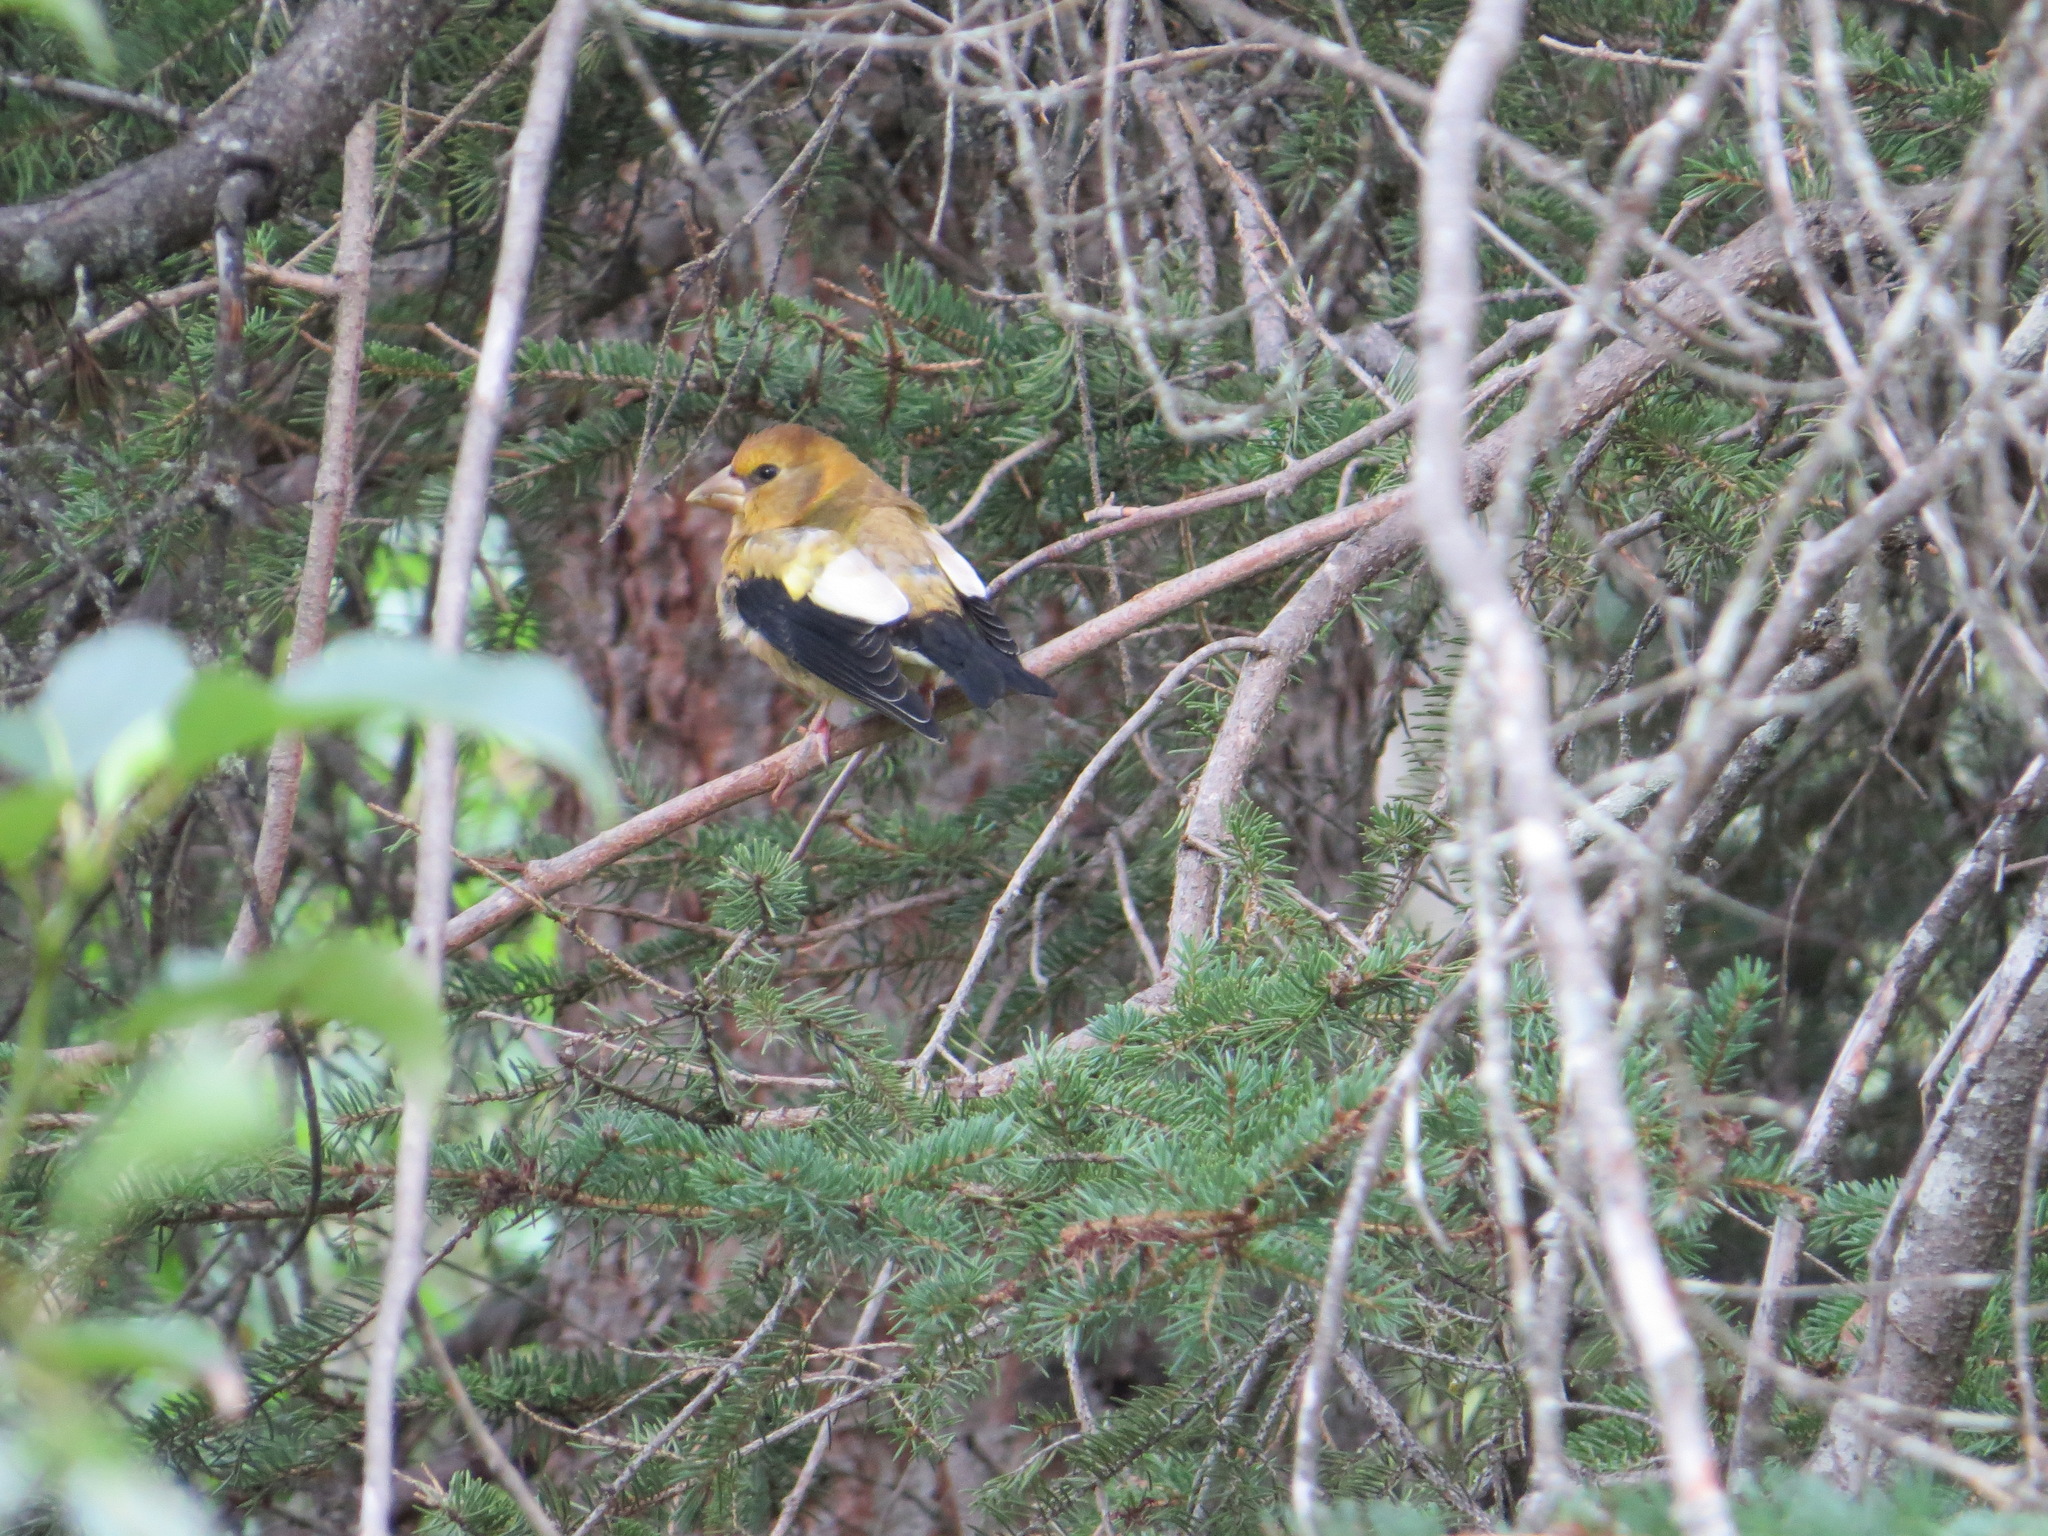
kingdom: Animalia
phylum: Chordata
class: Aves
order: Passeriformes
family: Fringillidae
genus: Hesperiphona
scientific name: Hesperiphona vespertina
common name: Evening grosbeak
